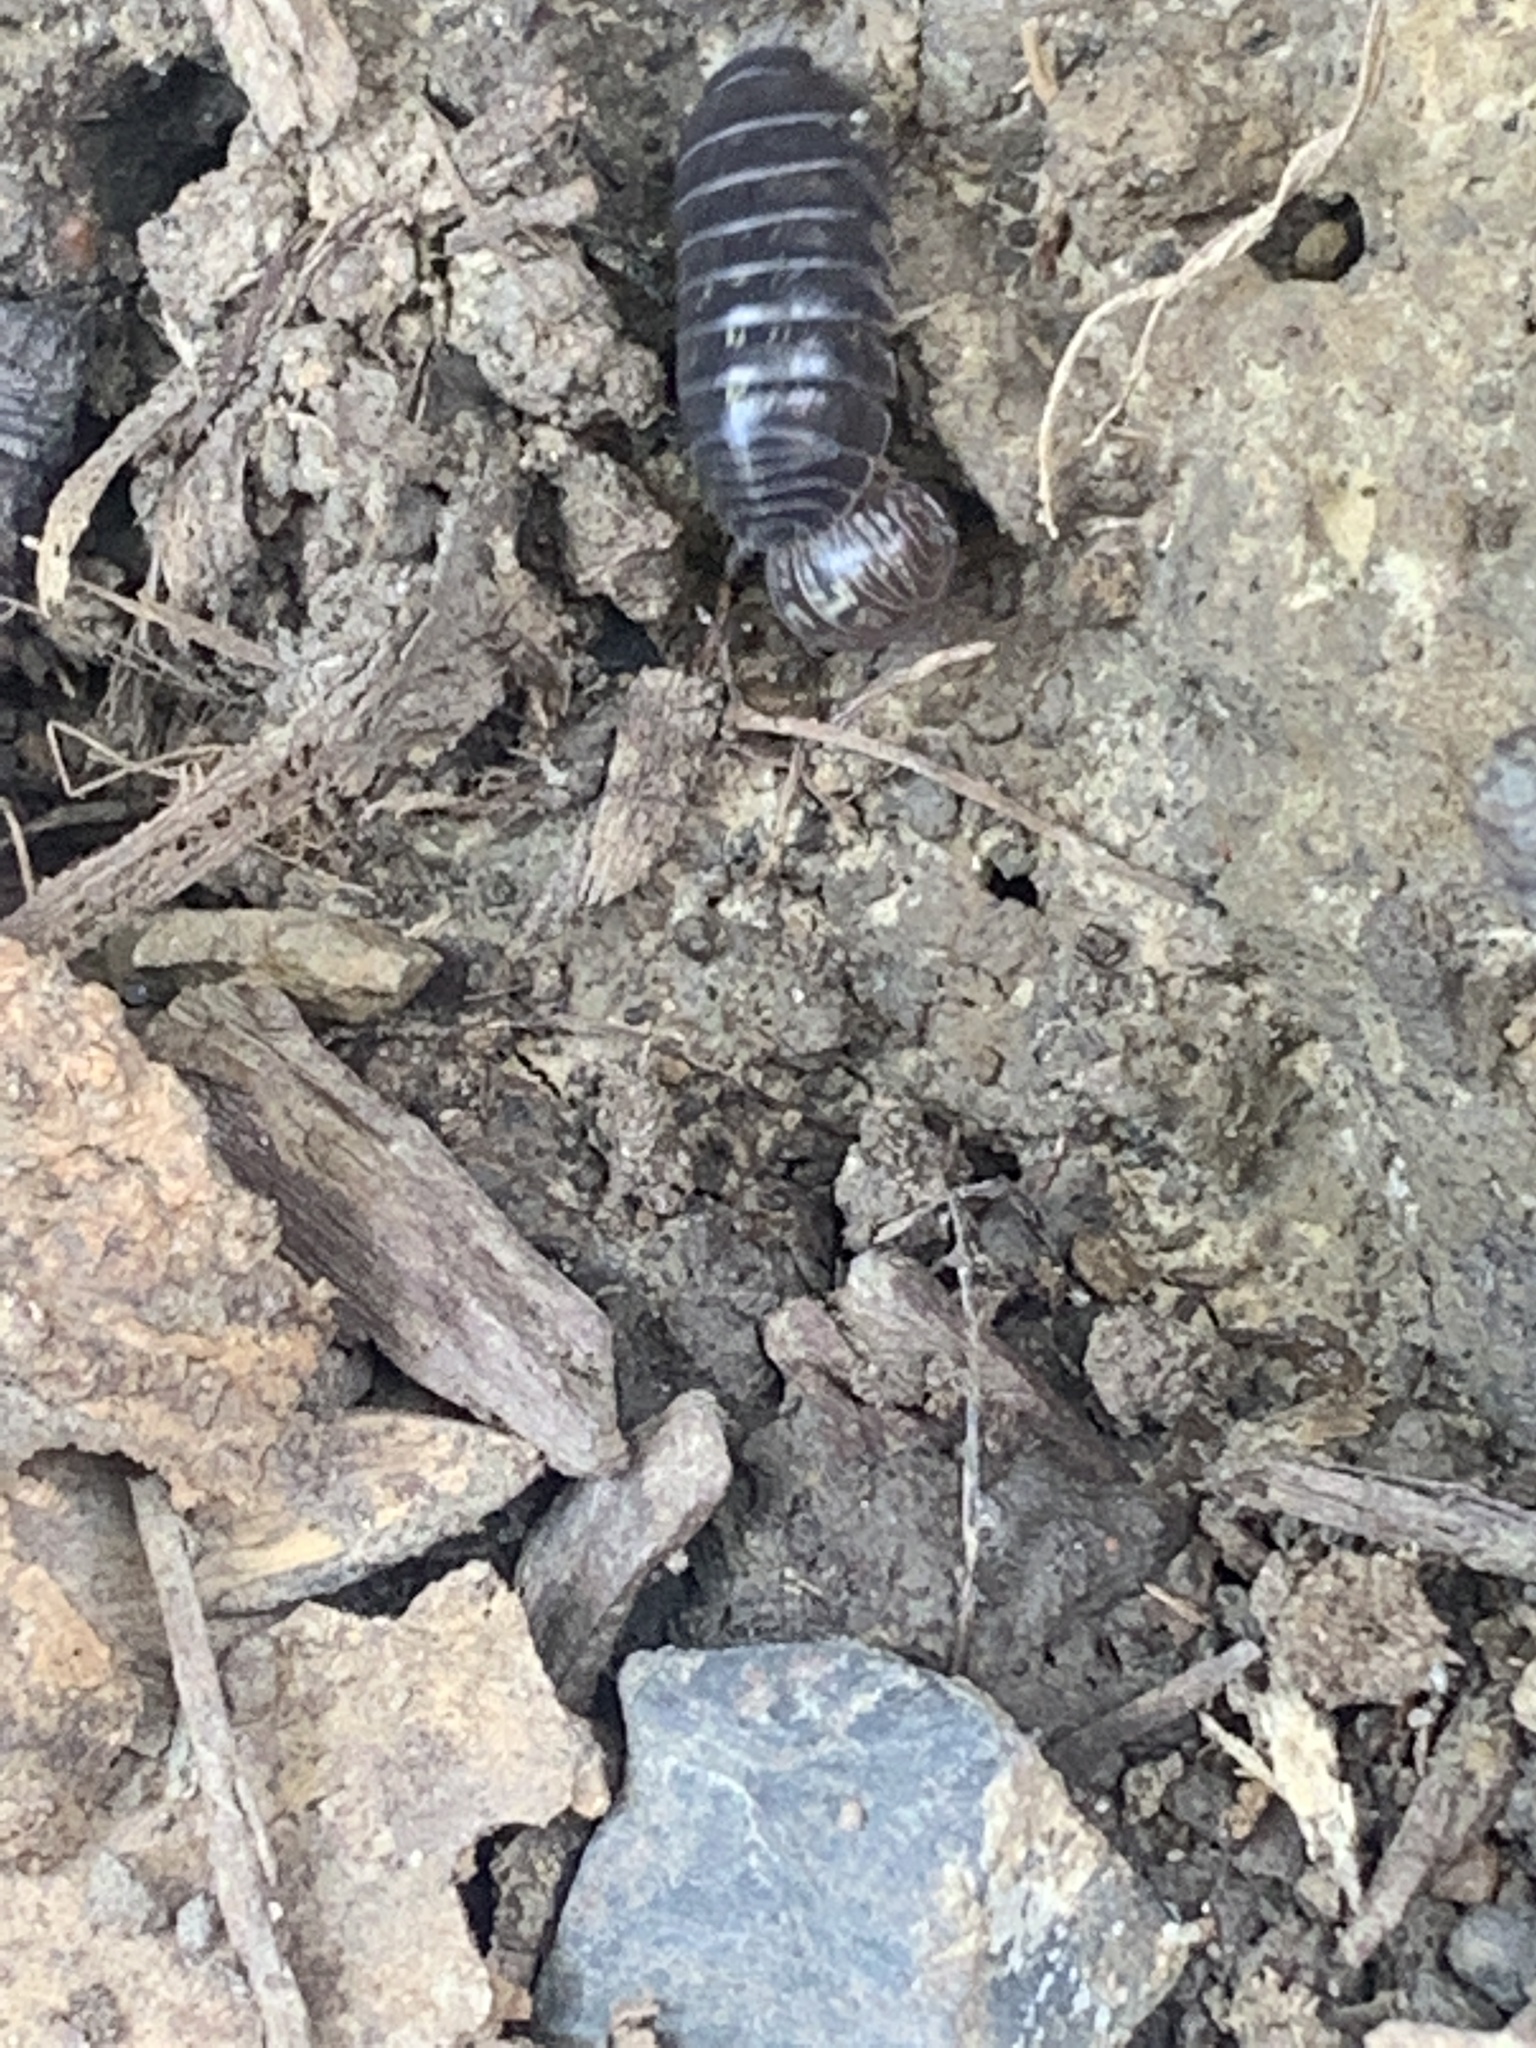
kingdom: Animalia
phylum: Arthropoda
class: Malacostraca
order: Isopoda
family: Armadillidiidae
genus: Armadillidium
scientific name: Armadillidium vulgare
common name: Common pill woodlouse
